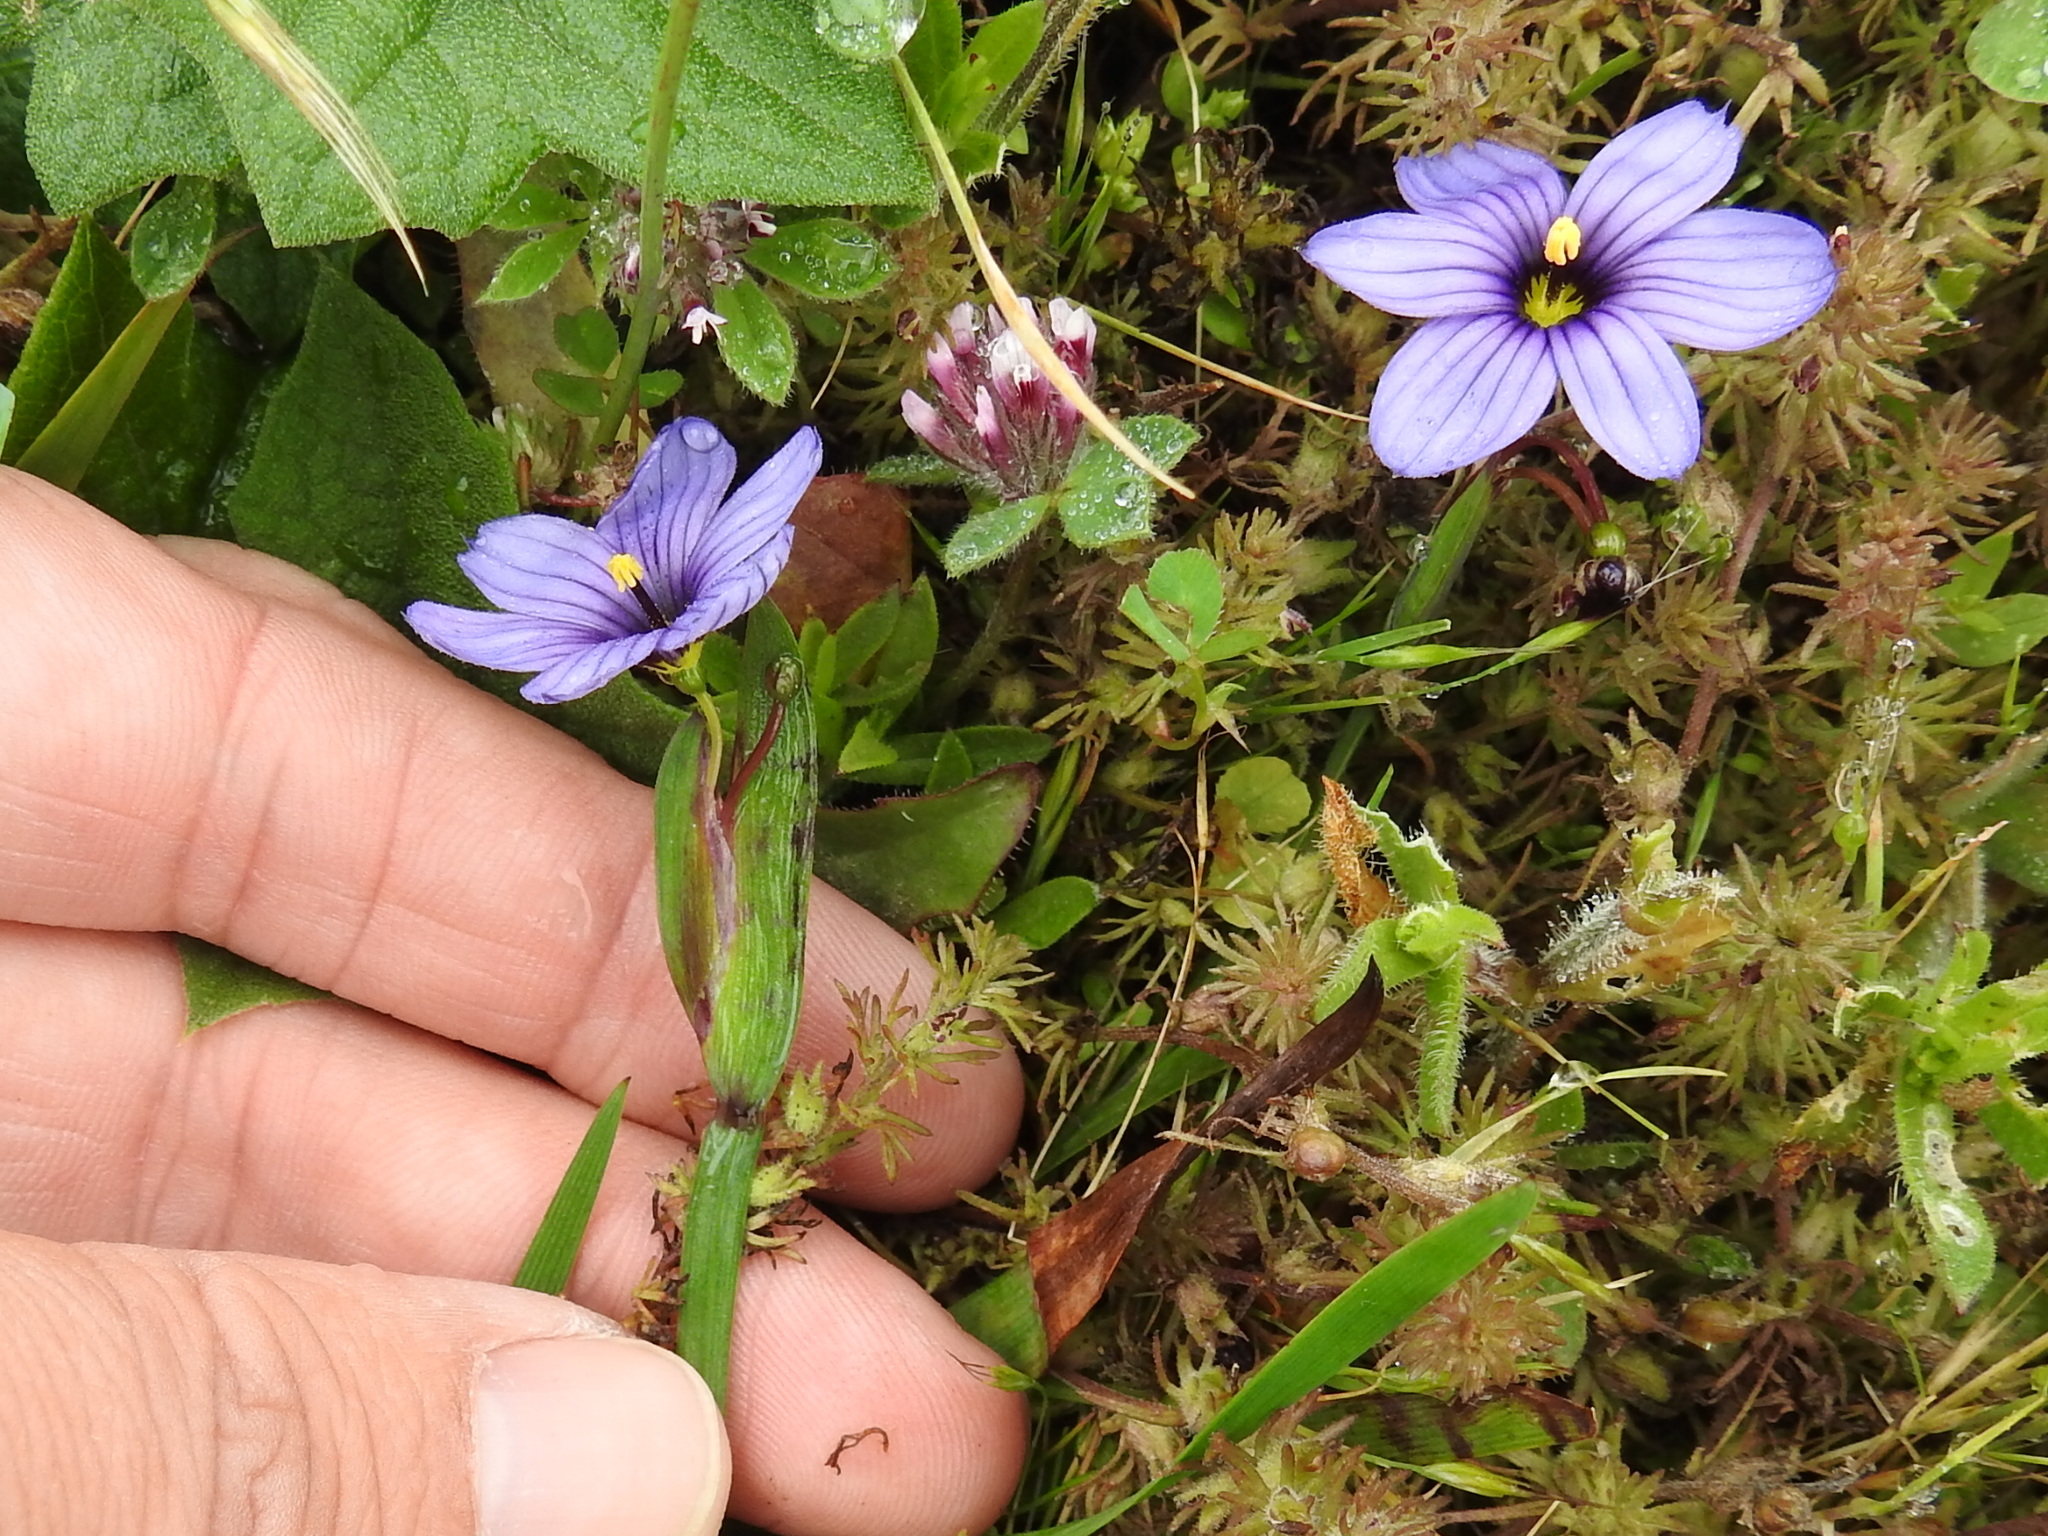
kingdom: Plantae
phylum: Tracheophyta
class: Liliopsida
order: Asparagales
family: Iridaceae
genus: Sisyrinchium
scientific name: Sisyrinchium bellum
